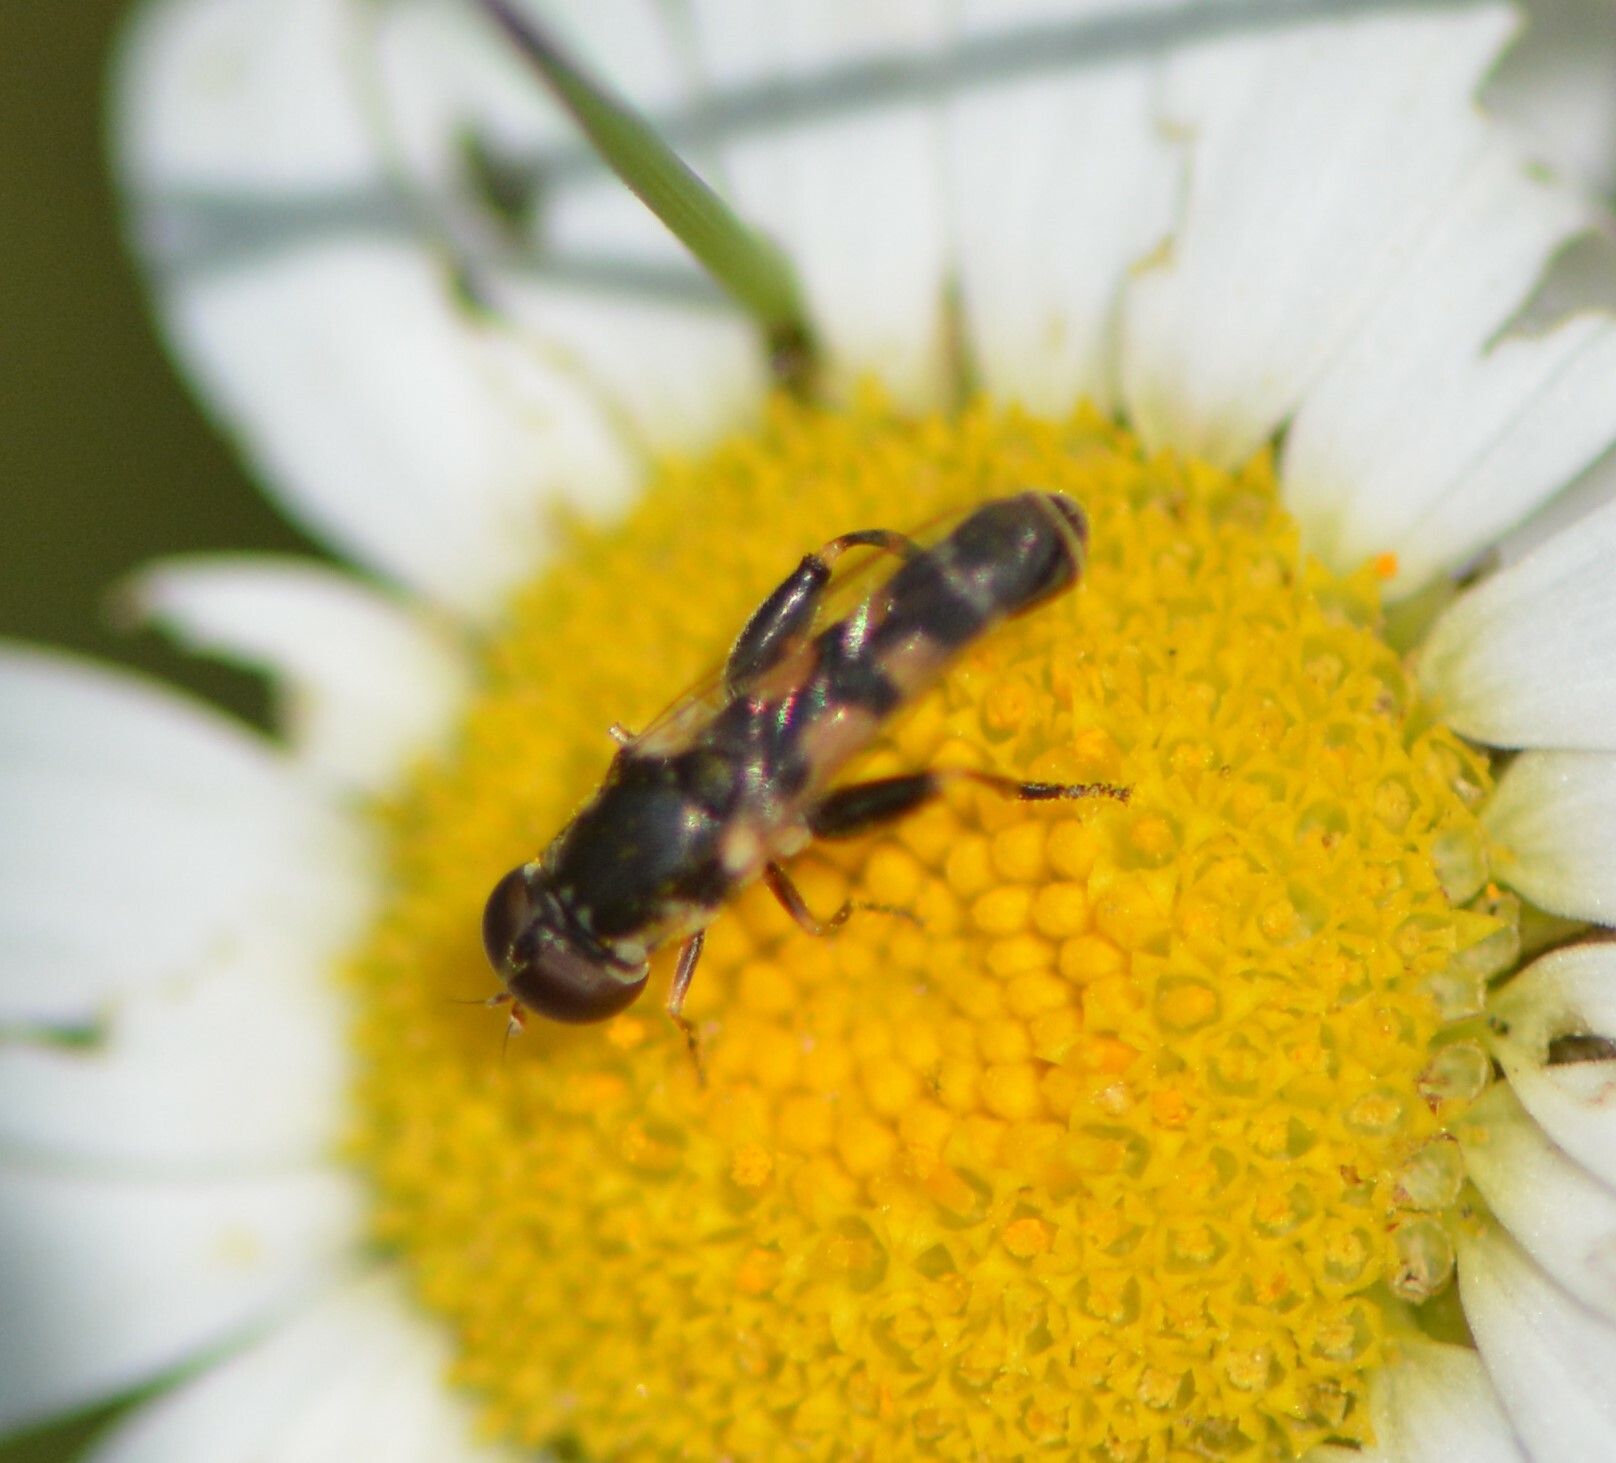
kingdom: Animalia
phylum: Arthropoda
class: Insecta
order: Diptera
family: Syrphidae
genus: Syritta
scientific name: Syritta pipiens
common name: Hover fly
